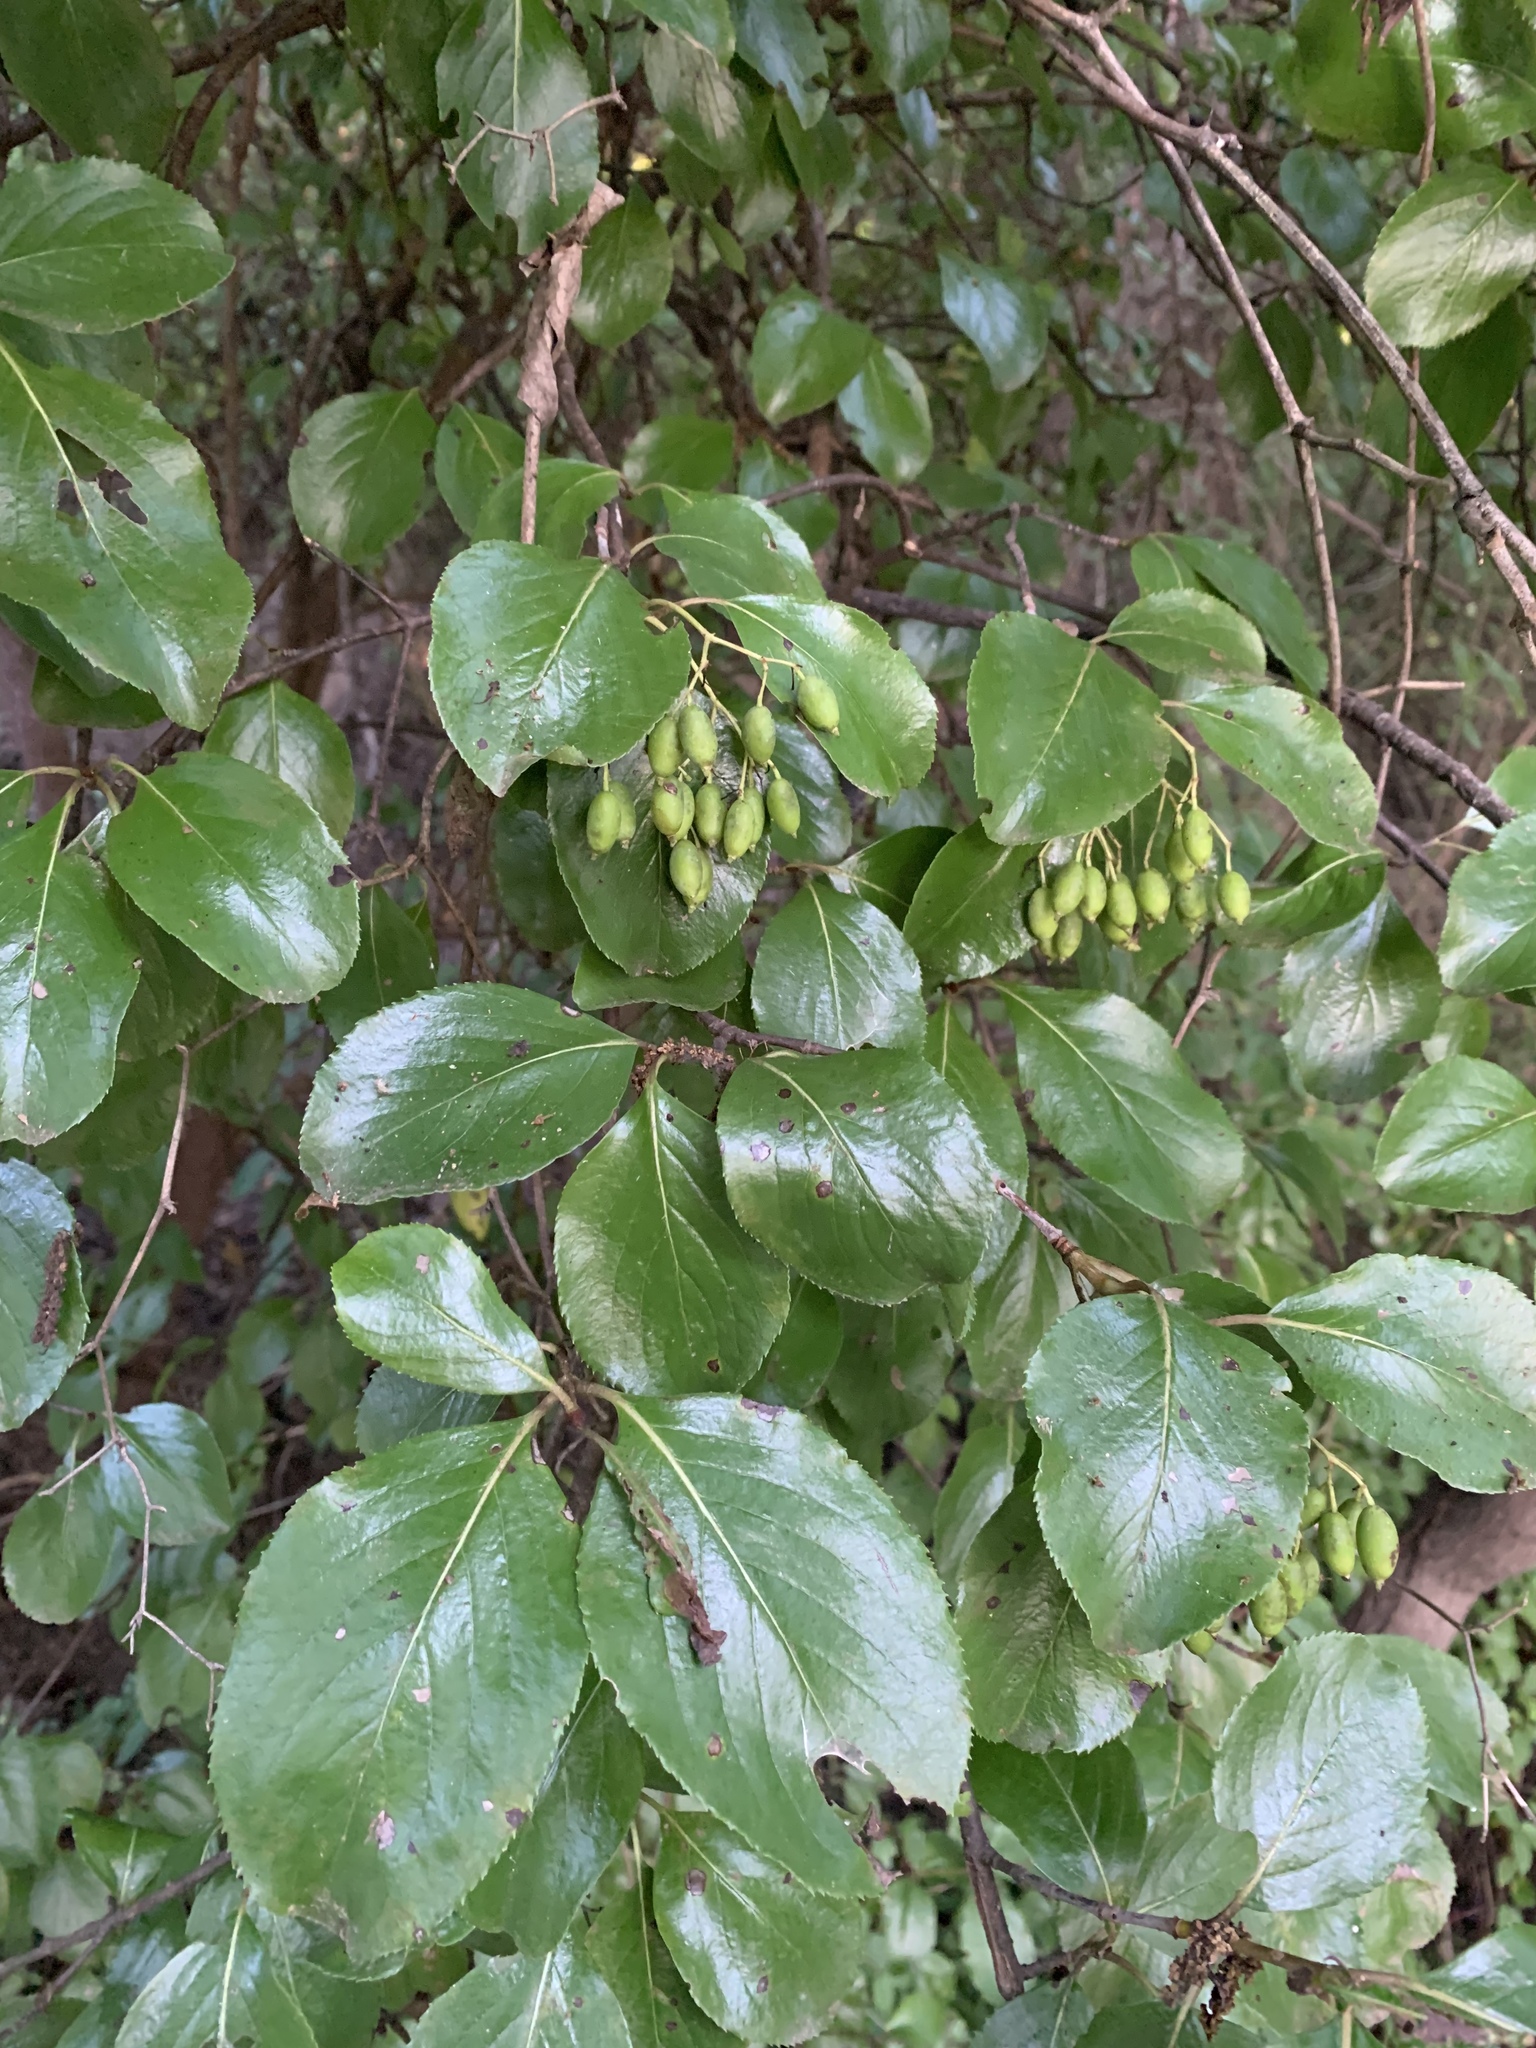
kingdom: Plantae
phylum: Tracheophyta
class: Magnoliopsida
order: Dipsacales
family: Viburnaceae
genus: Viburnum
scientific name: Viburnum rufidulum
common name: Blue haw
